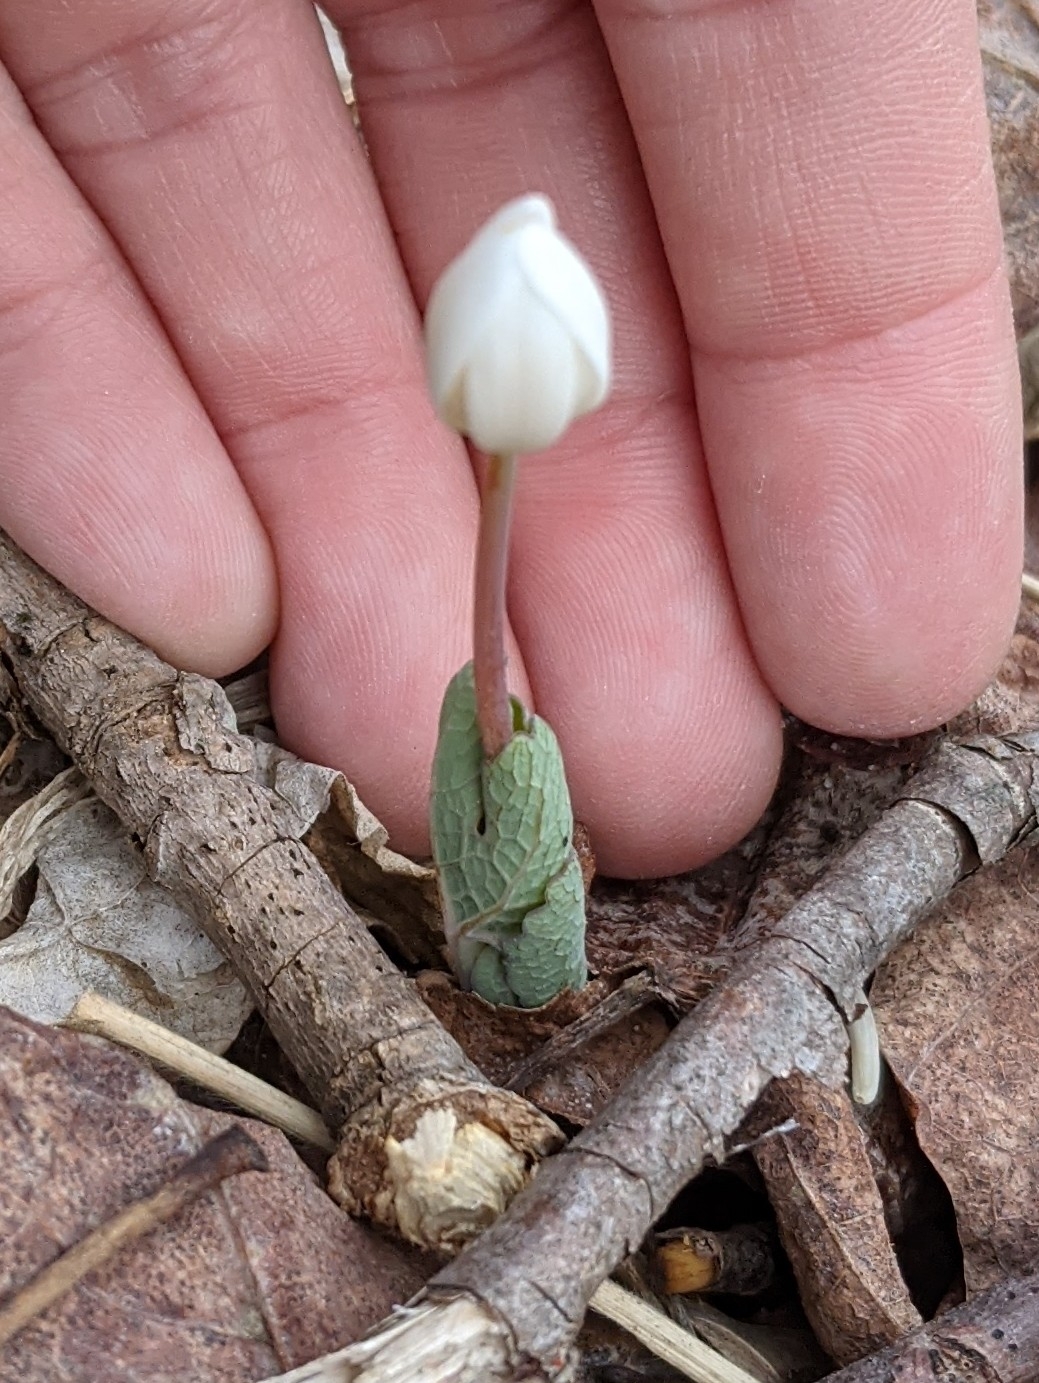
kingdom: Plantae
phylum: Tracheophyta
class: Magnoliopsida
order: Ranunculales
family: Papaveraceae
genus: Sanguinaria
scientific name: Sanguinaria canadensis
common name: Bloodroot
